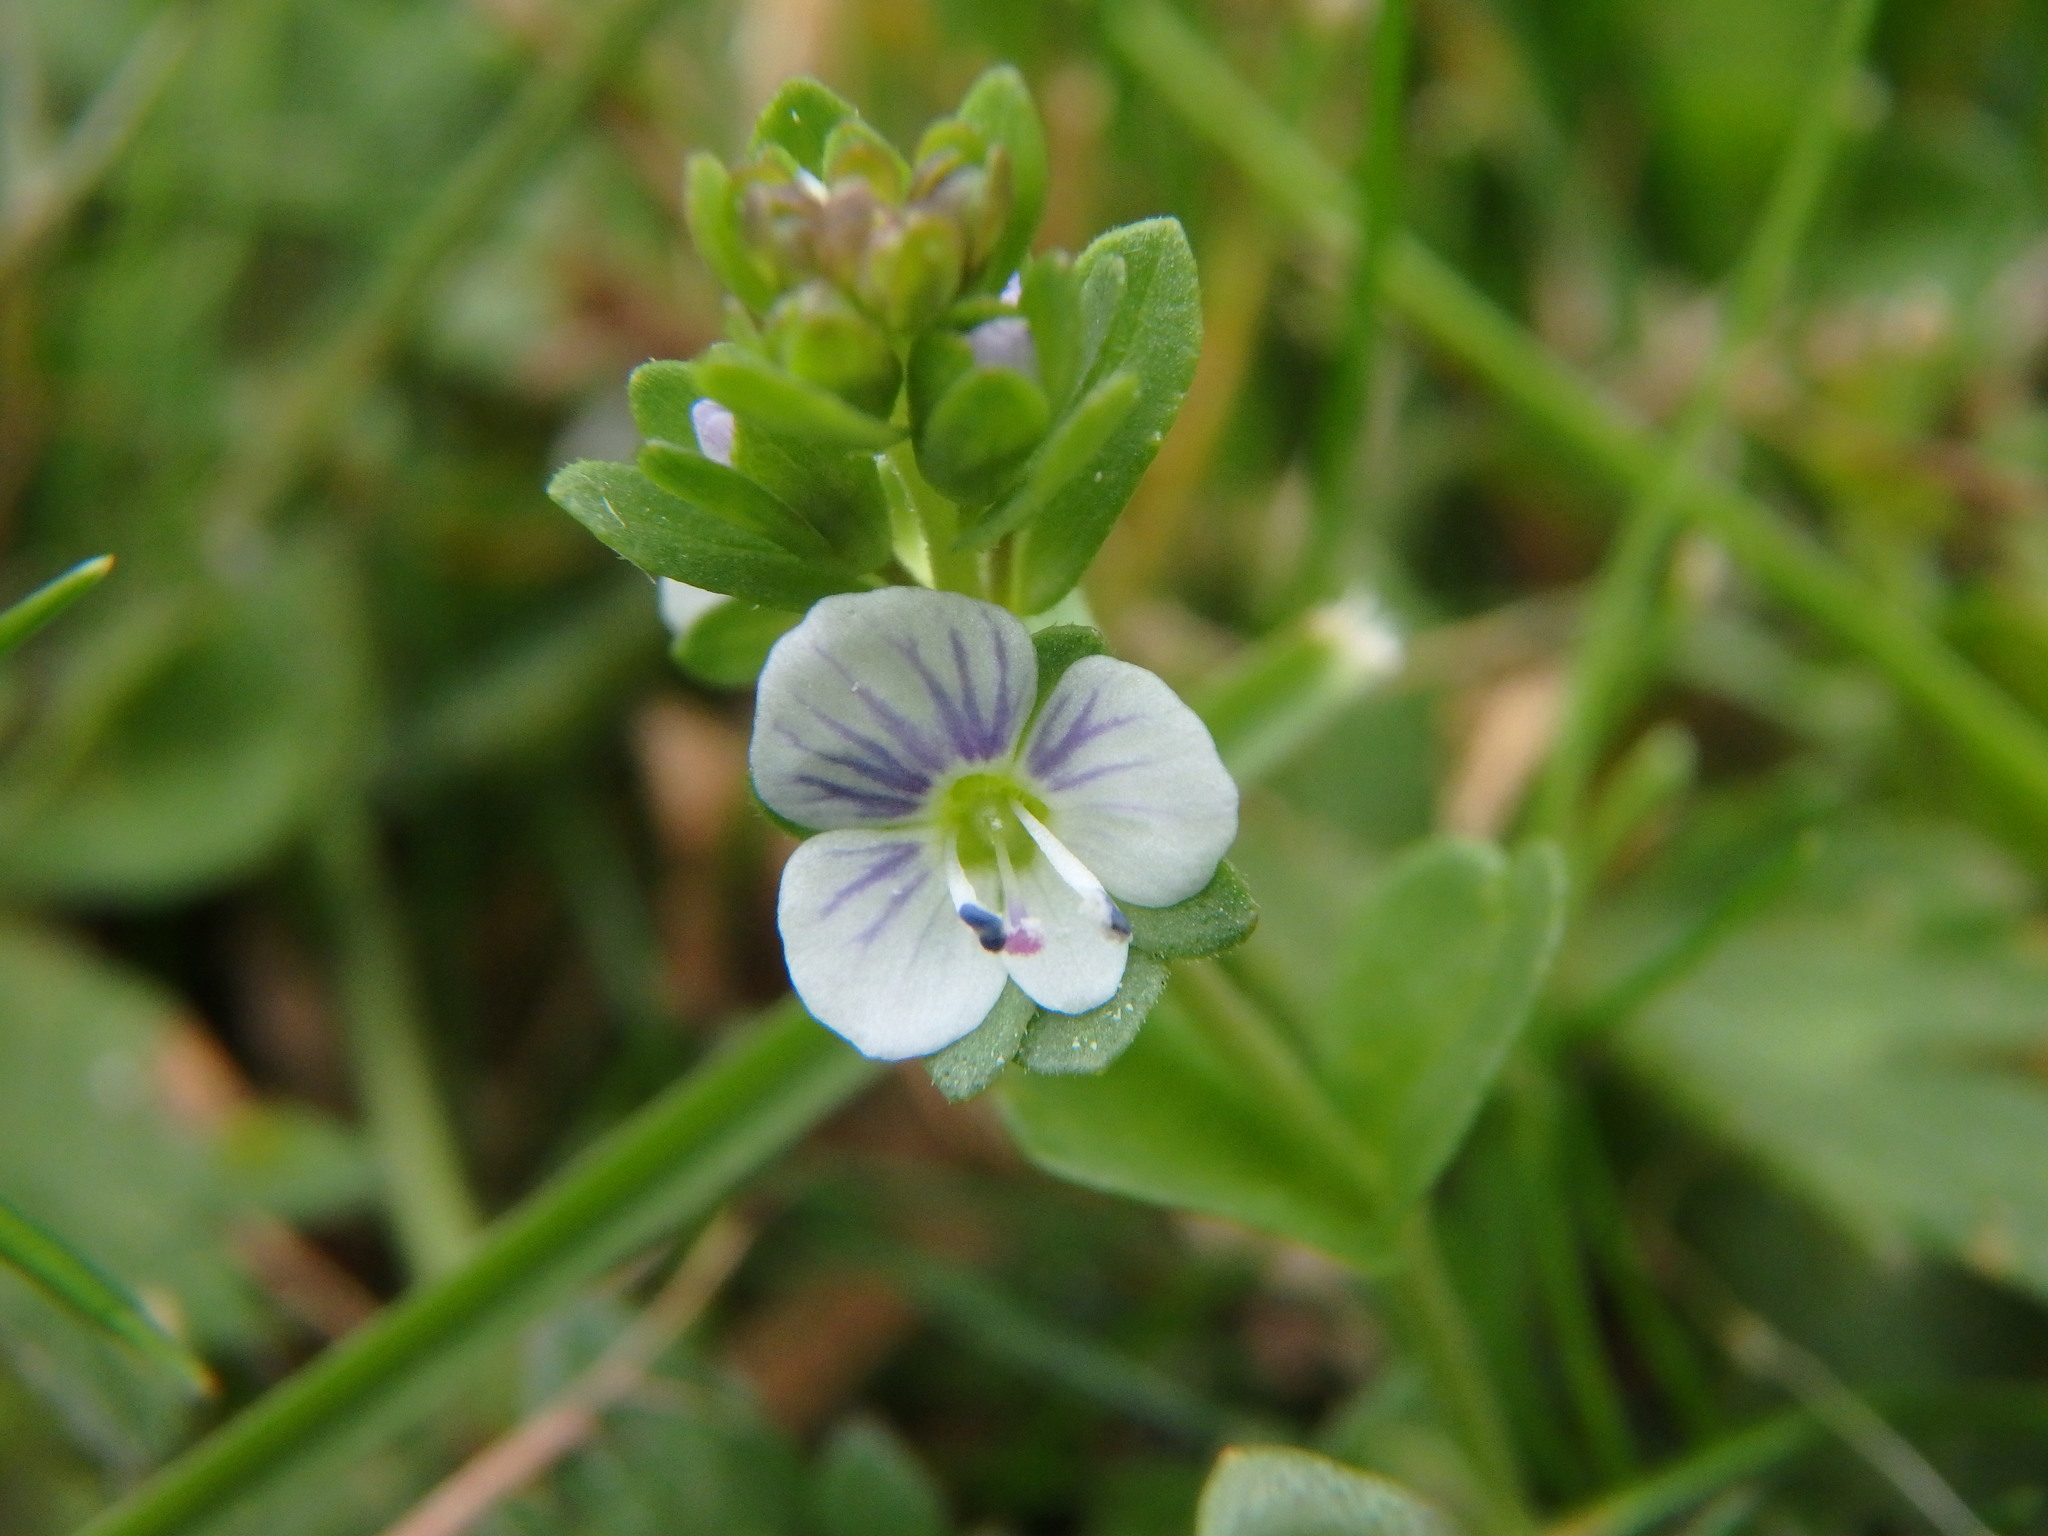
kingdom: Plantae
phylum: Tracheophyta
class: Magnoliopsida
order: Lamiales
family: Plantaginaceae
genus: Veronica
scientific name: Veronica serpyllifolia
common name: Thyme-leaved speedwell
